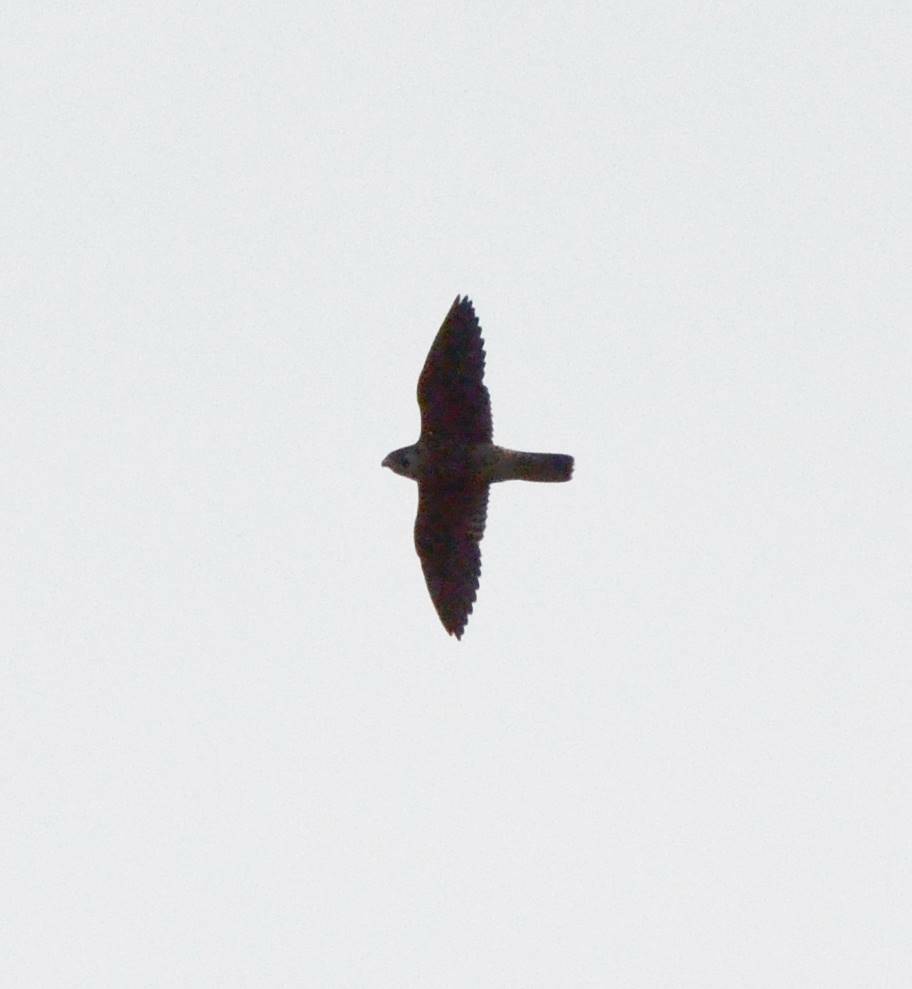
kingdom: Animalia
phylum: Chordata
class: Aves
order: Falconiformes
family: Falconidae
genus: Falco
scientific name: Falco peregrinus
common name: Peregrine falcon
